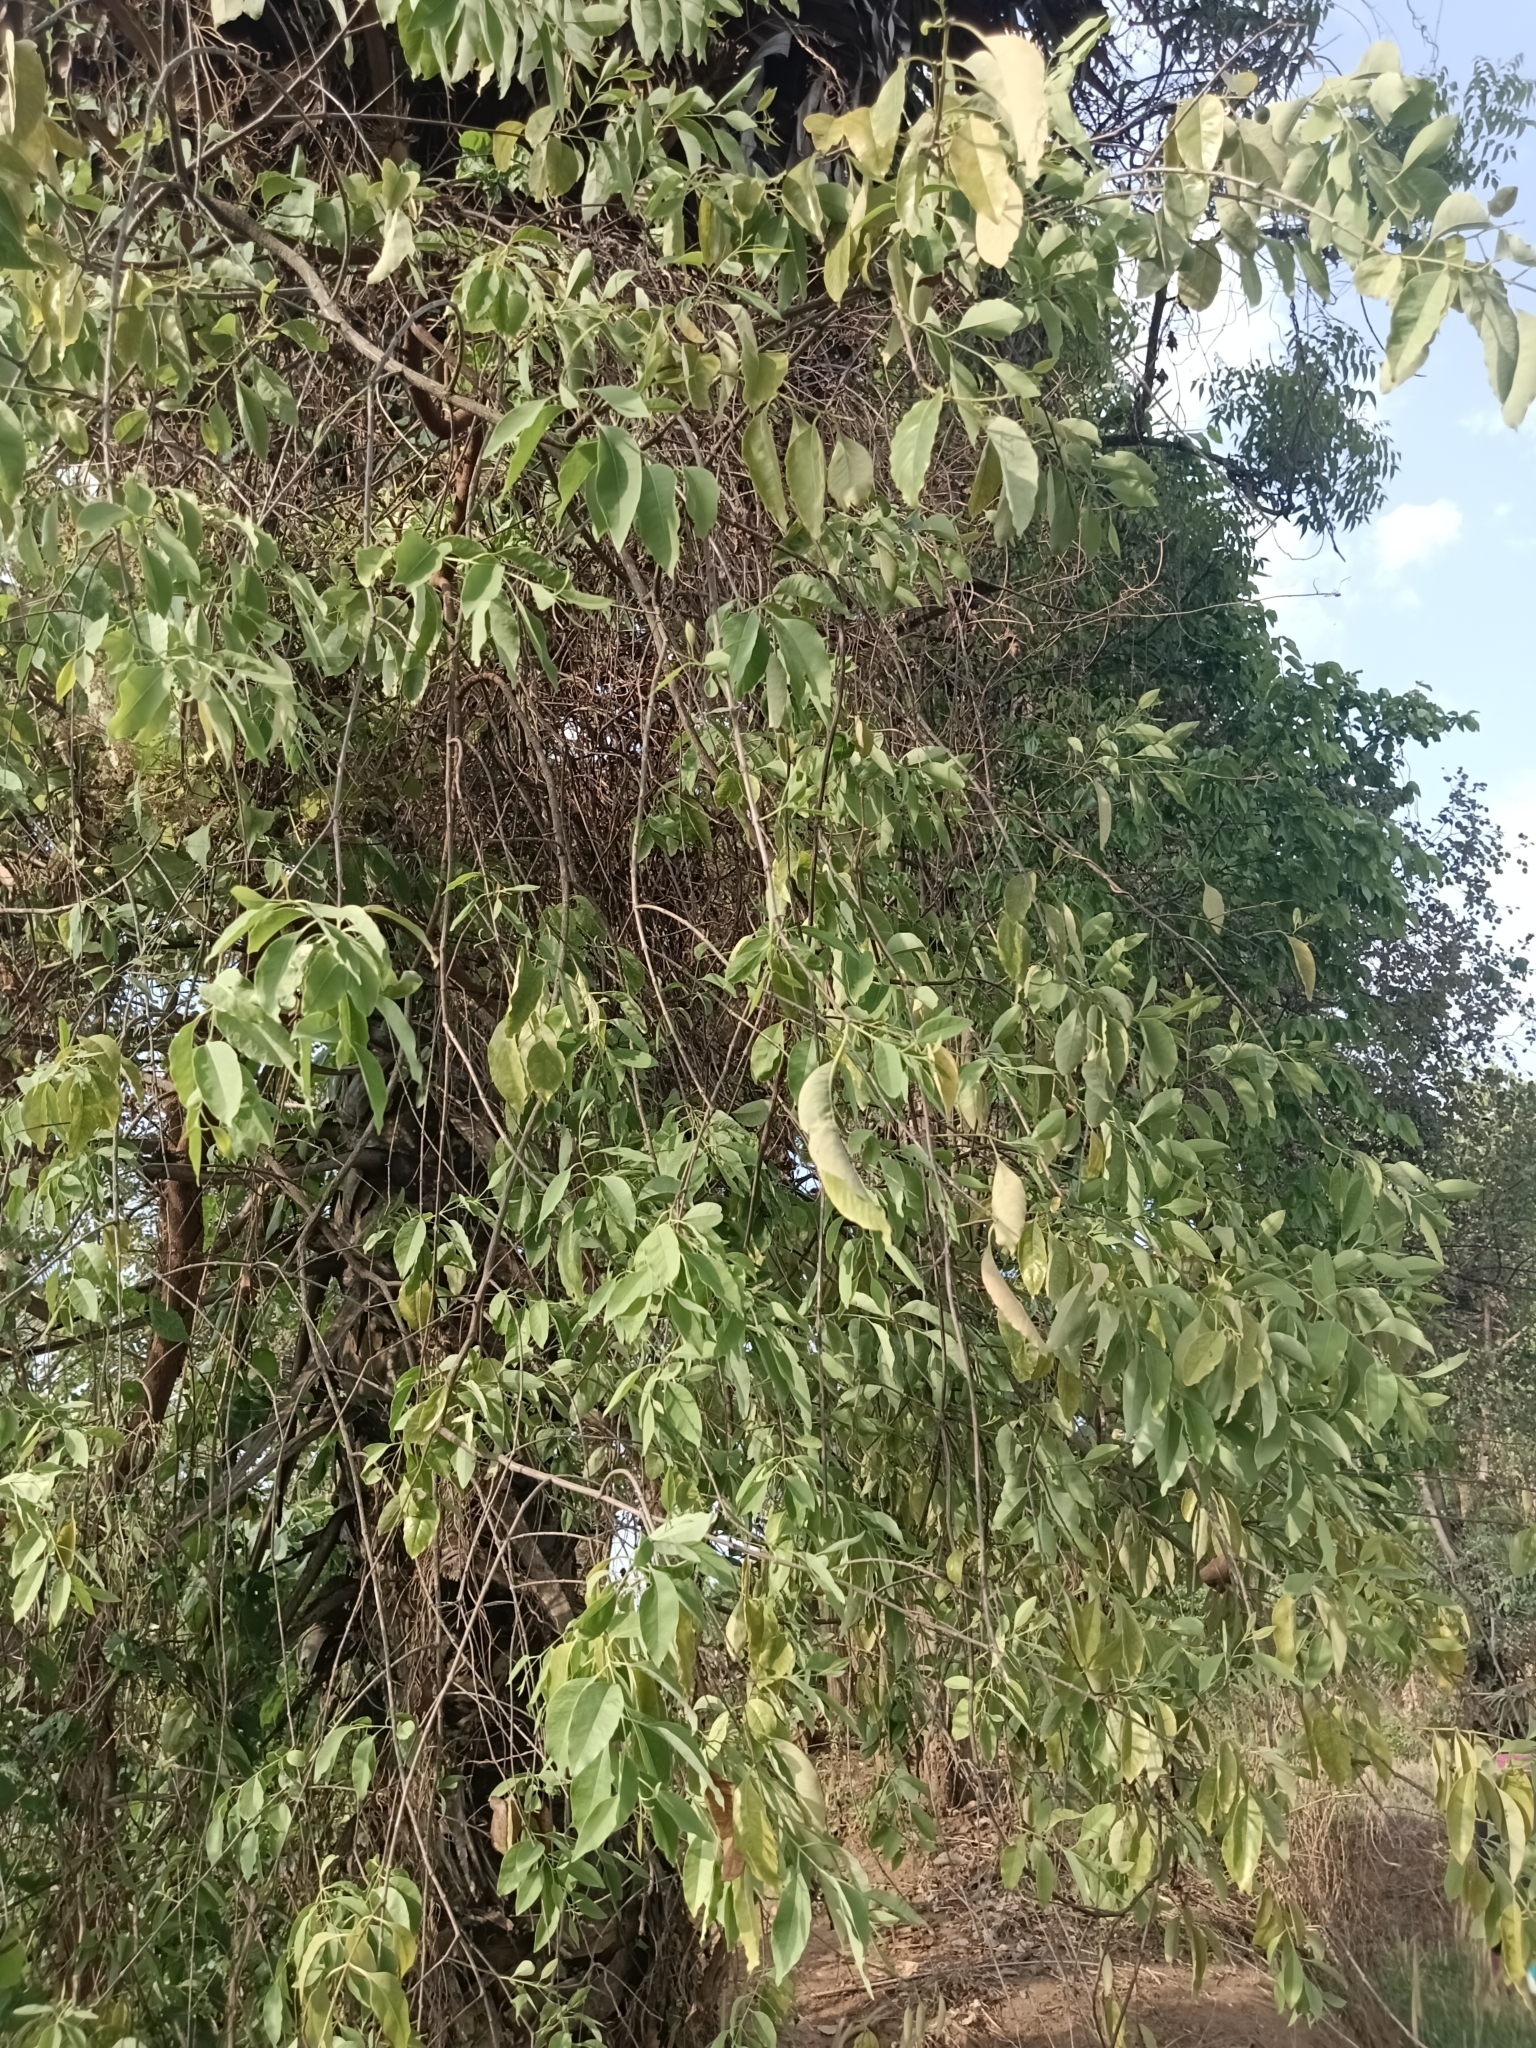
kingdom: Plantae
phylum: Tracheophyta
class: Magnoliopsida
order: Santalales
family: Santalaceae
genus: Santalum
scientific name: Santalum album
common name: Indian sandalwood
